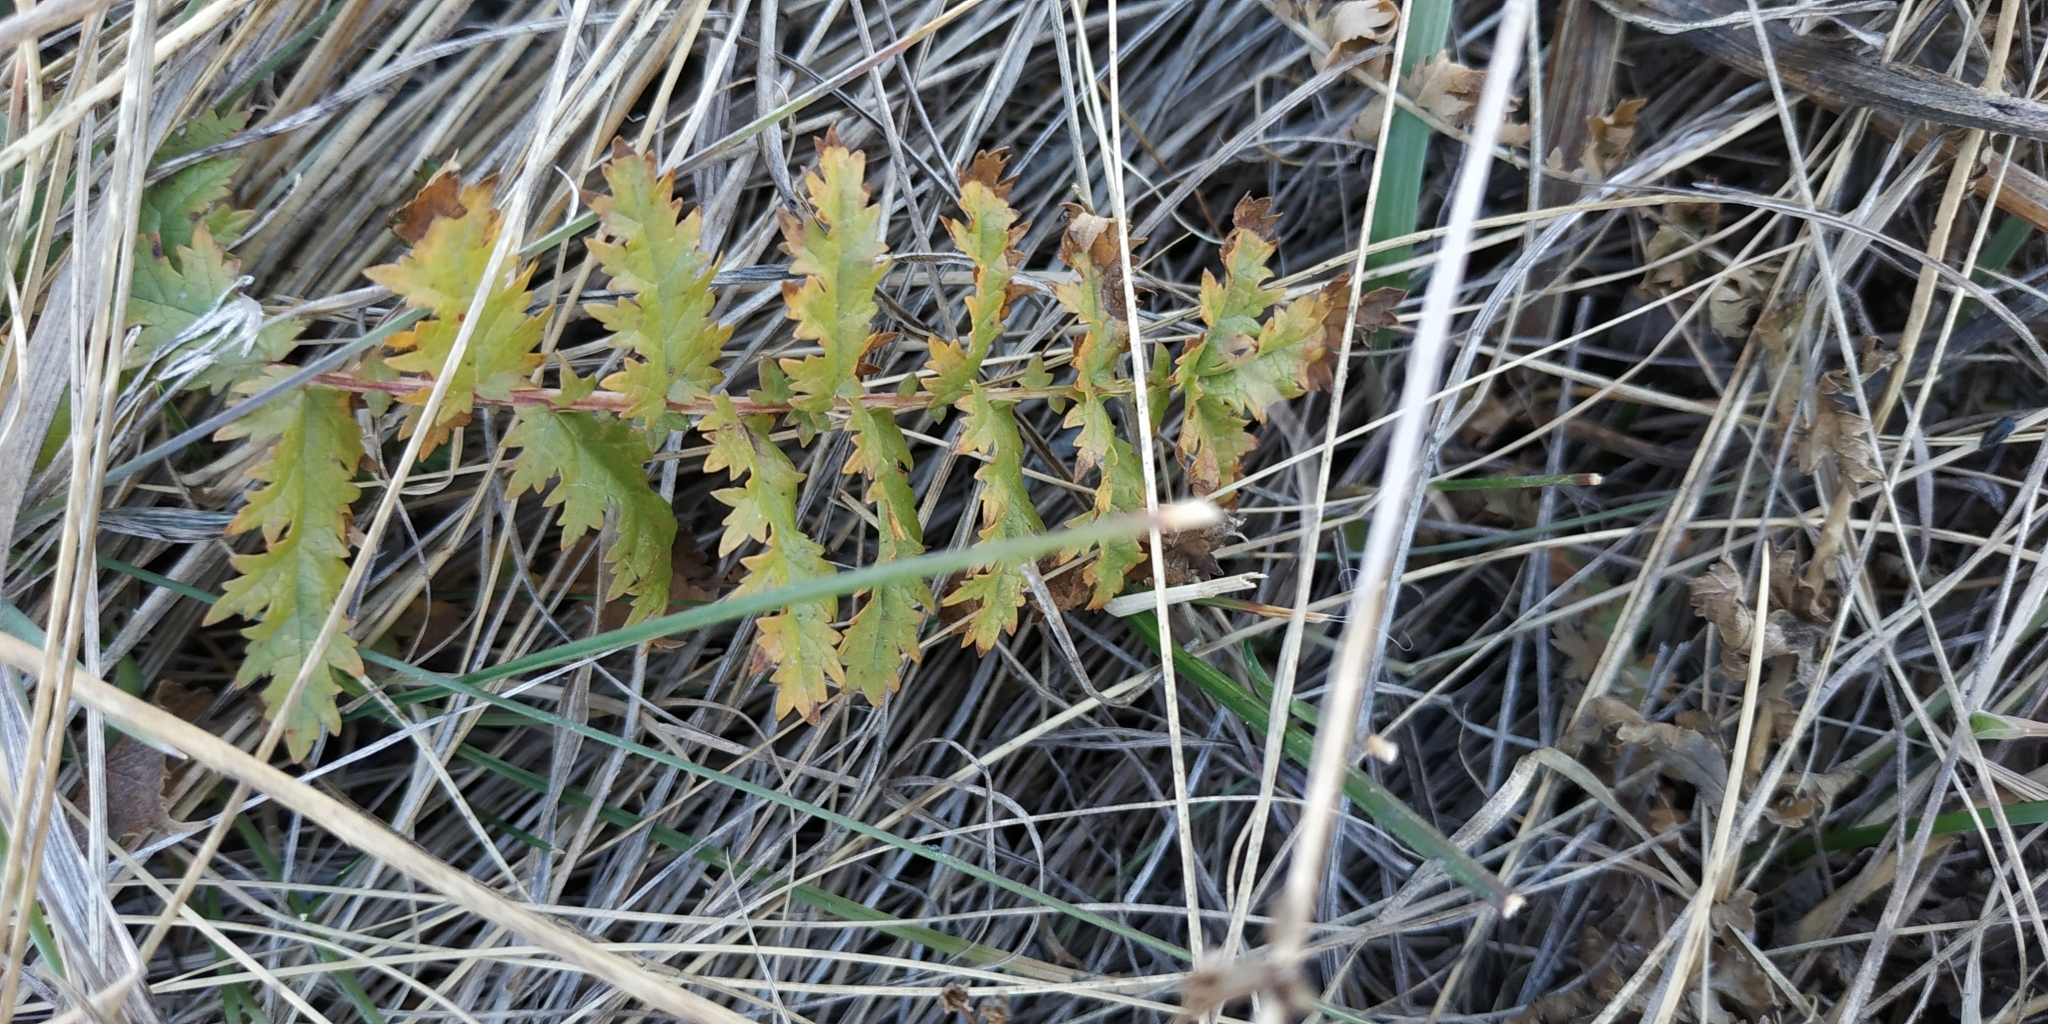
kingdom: Plantae
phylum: Tracheophyta
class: Magnoliopsida
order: Rosales
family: Rosaceae
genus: Filipendula
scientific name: Filipendula vulgaris
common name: Dropwort
